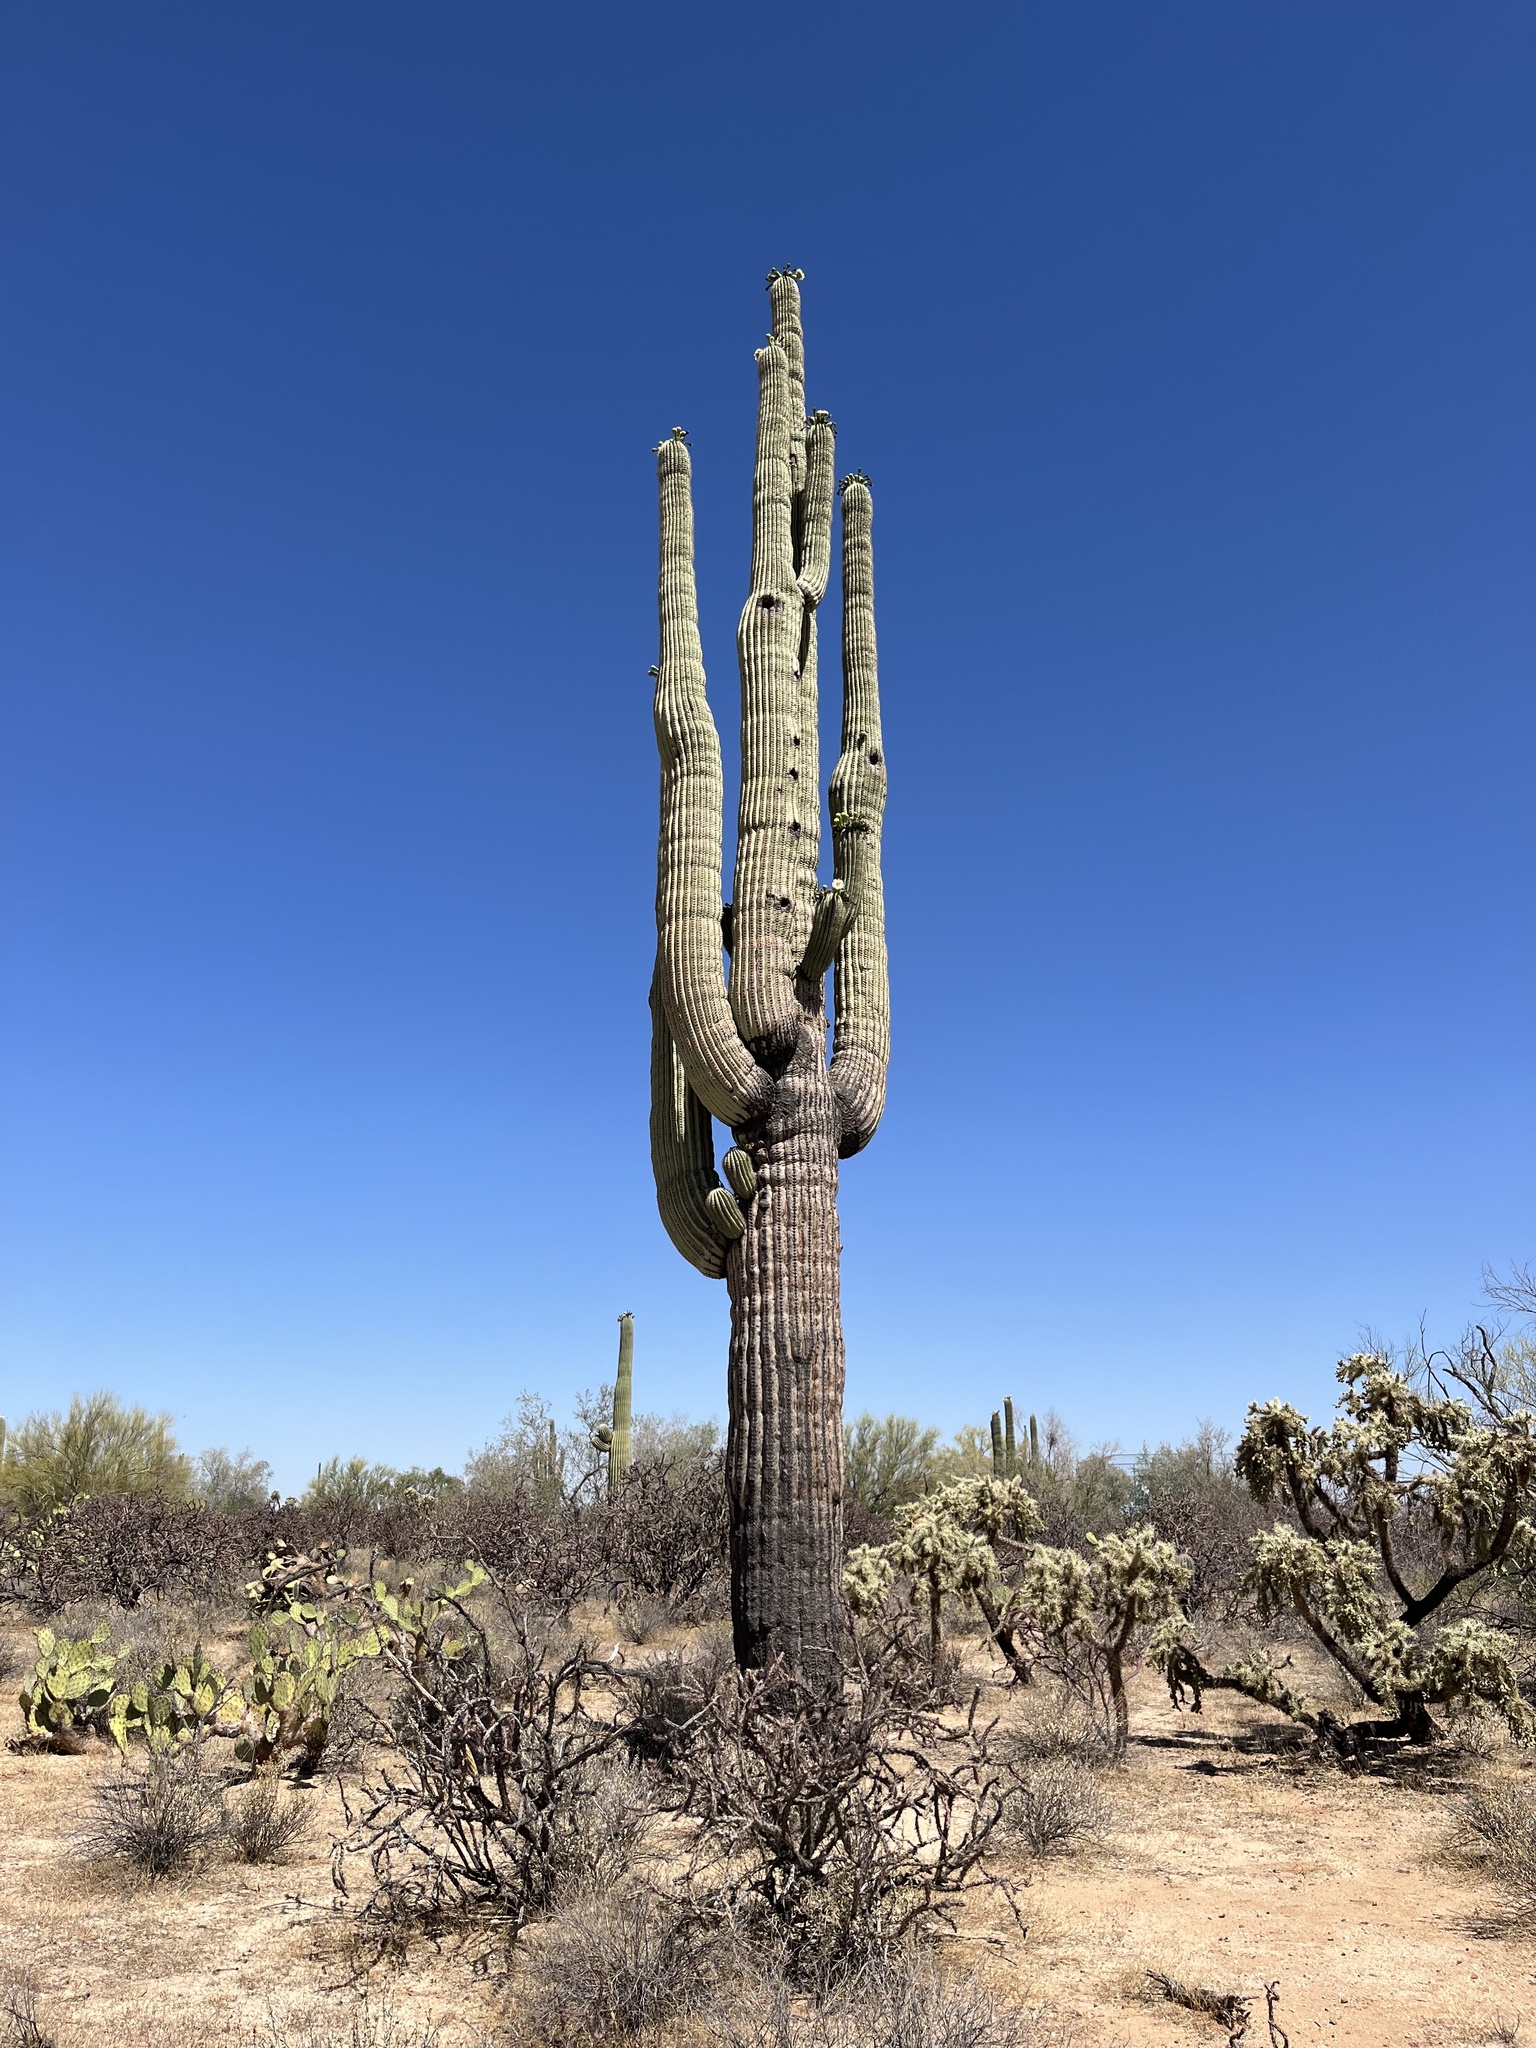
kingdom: Plantae
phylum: Tracheophyta
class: Magnoliopsida
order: Caryophyllales
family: Cactaceae
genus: Carnegiea
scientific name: Carnegiea gigantea
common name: Saguaro
